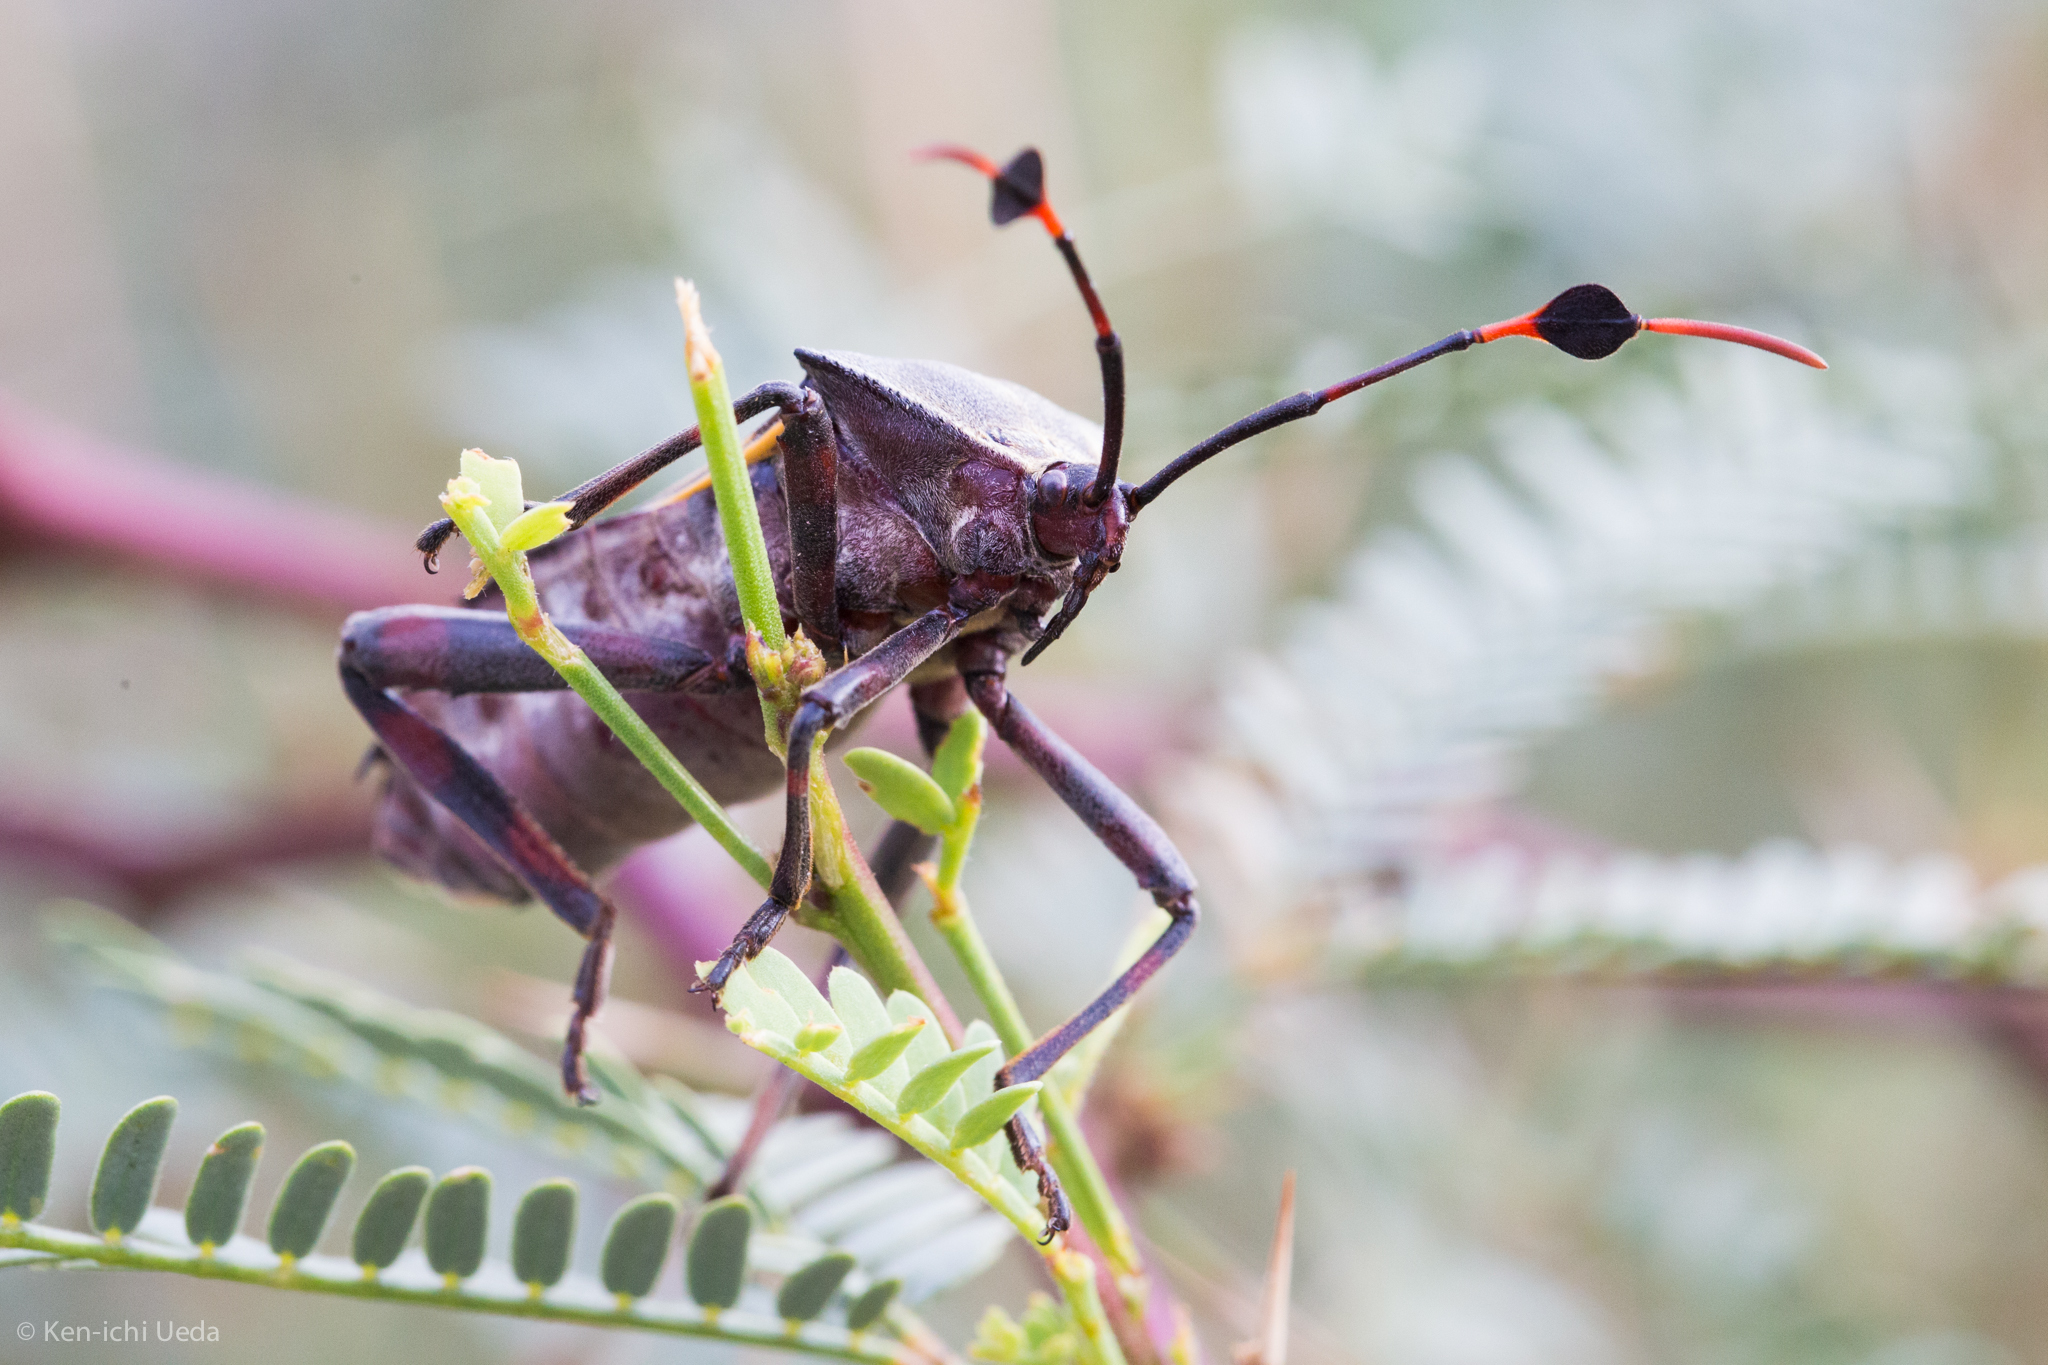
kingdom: Animalia
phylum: Arthropoda
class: Insecta
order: Hemiptera
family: Coreidae
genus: Thasus
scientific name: Thasus neocalifornicus
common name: Giant mesquite bug
